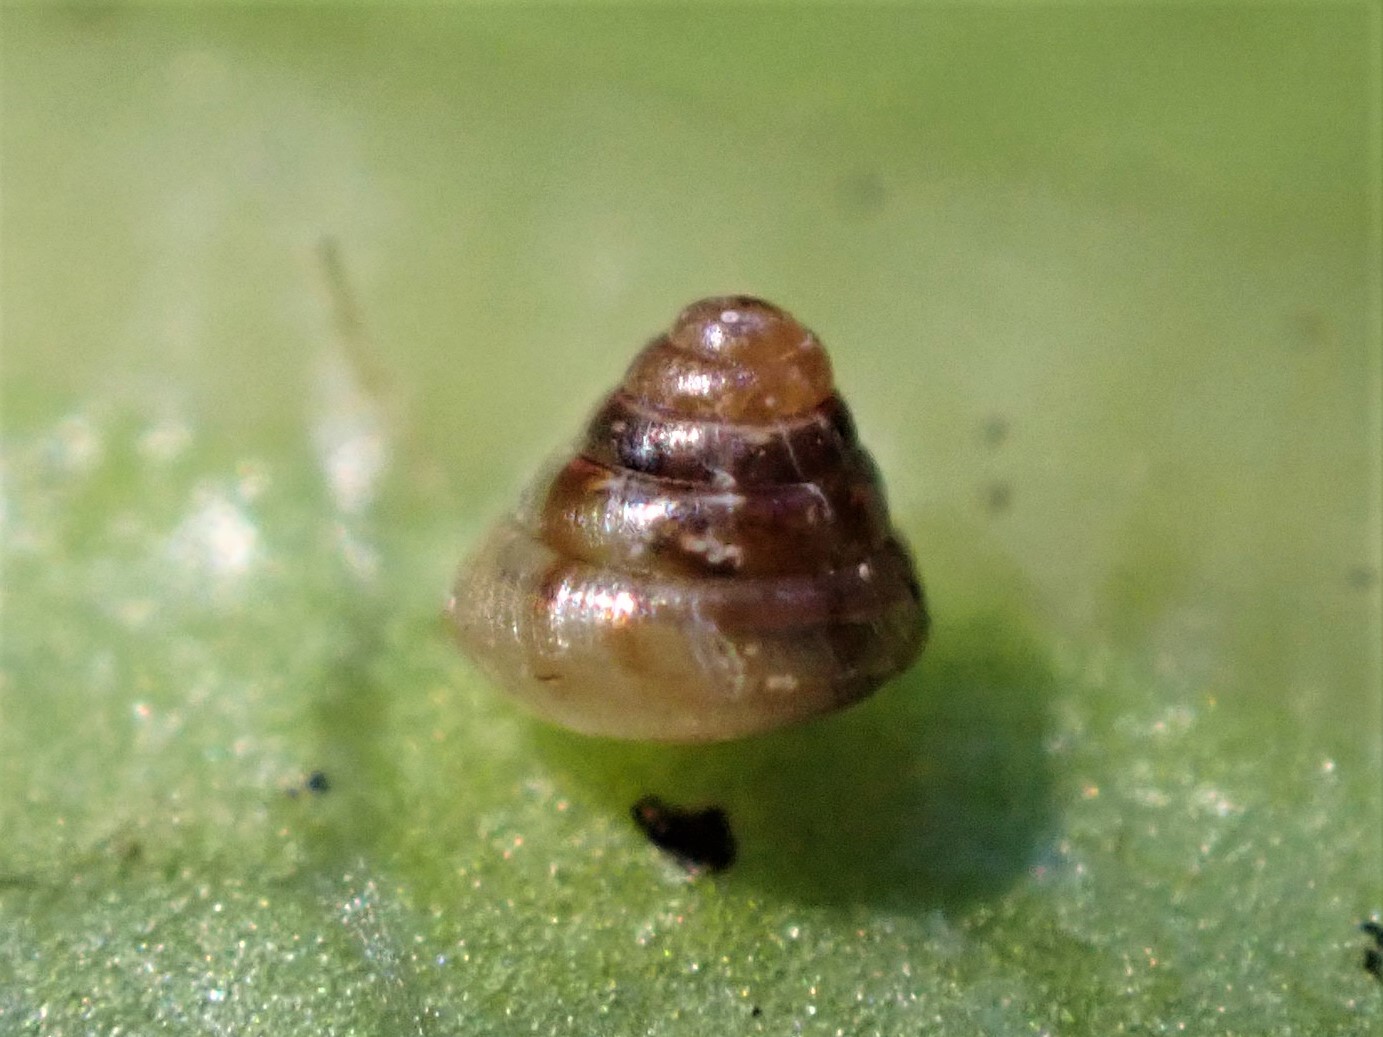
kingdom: Animalia
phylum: Mollusca
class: Gastropoda
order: Stylommatophora
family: Punctidae
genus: Phrixgnathus
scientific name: Phrixgnathus erigone
